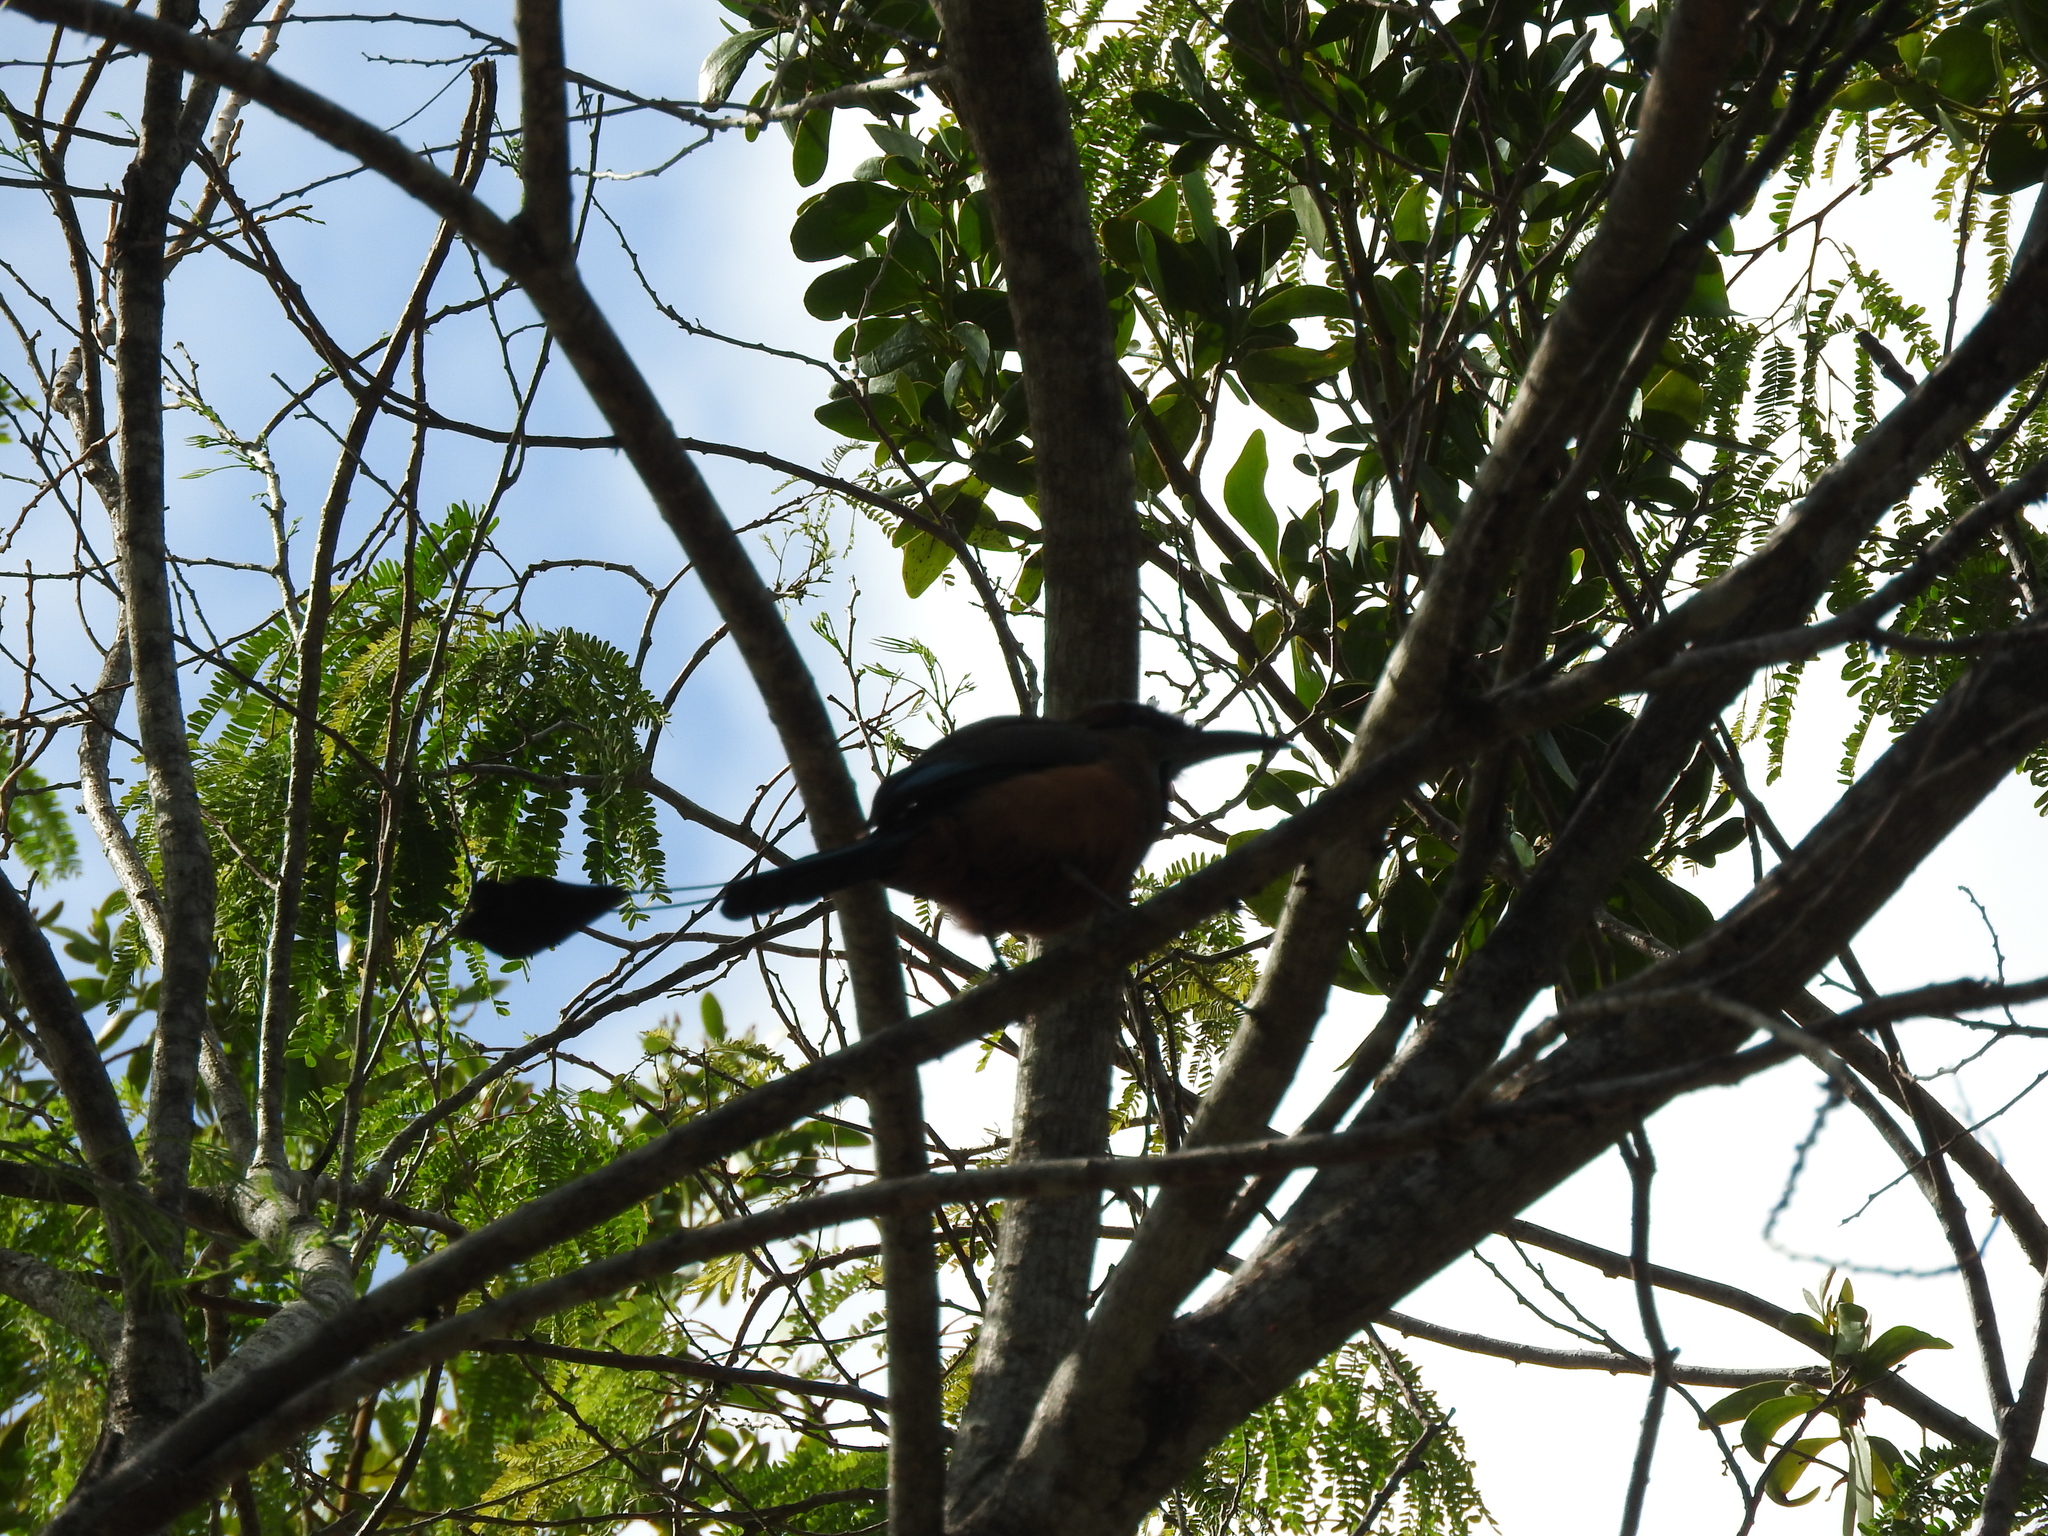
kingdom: Animalia
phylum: Chordata
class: Aves
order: Coraciiformes
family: Momotidae
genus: Eumomota
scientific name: Eumomota superciliosa
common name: Turquoise-browed motmot
